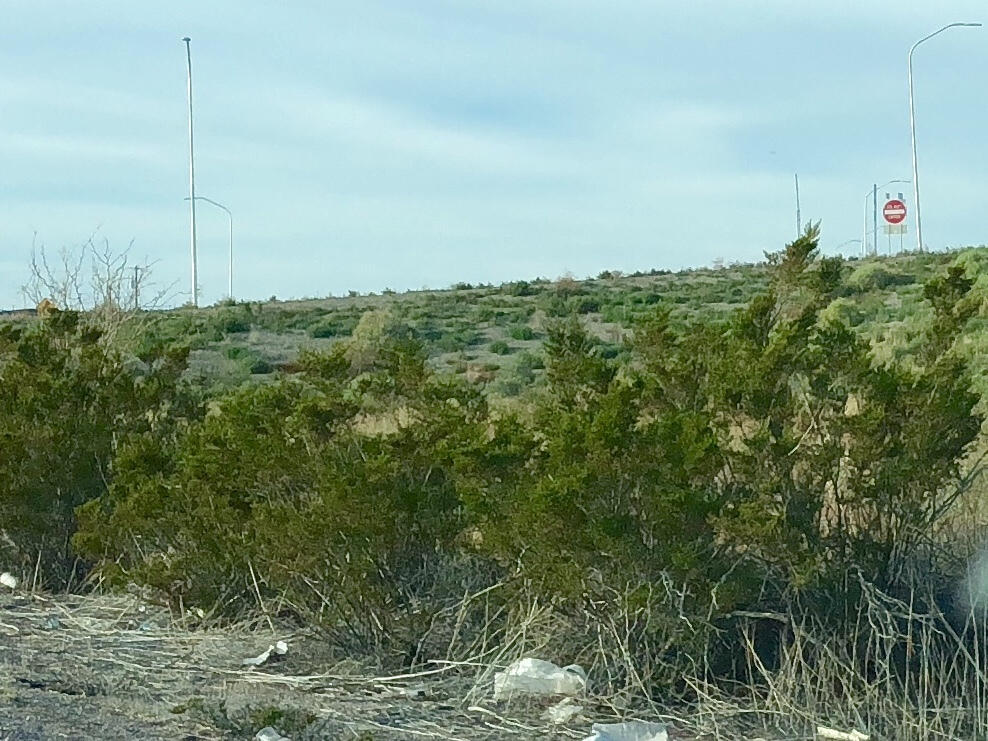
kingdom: Plantae
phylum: Tracheophyta
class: Magnoliopsida
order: Zygophyllales
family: Zygophyllaceae
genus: Larrea
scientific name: Larrea tridentata
